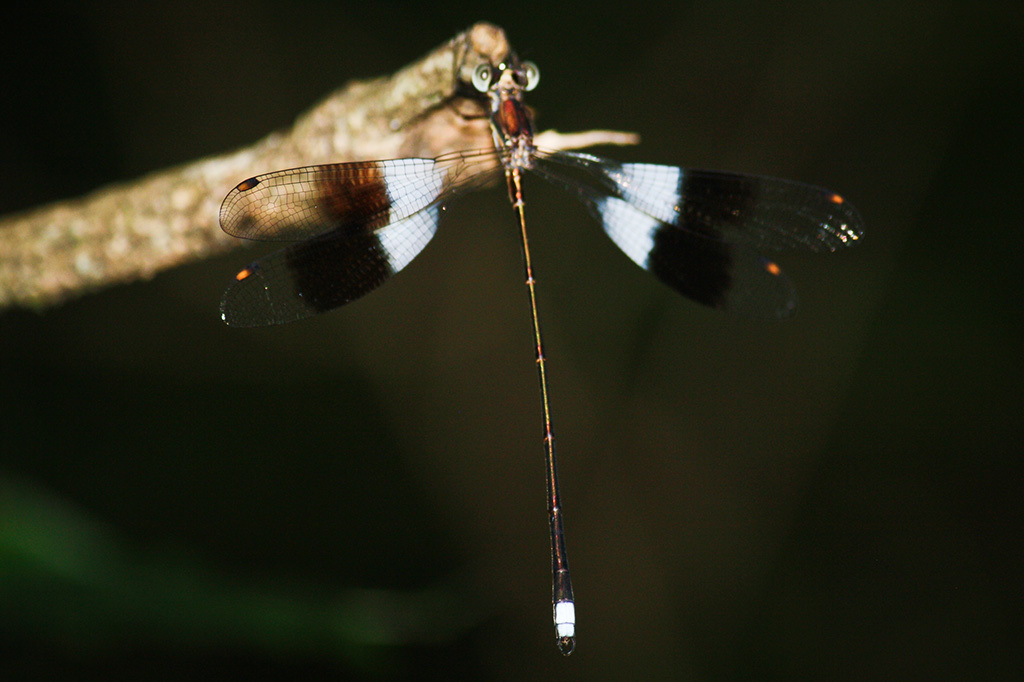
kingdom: Animalia
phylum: Arthropoda
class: Insecta
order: Odonata
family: Synlestidae
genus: Chlorolestes
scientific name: Chlorolestes fasciatus
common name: Mountain malachite
